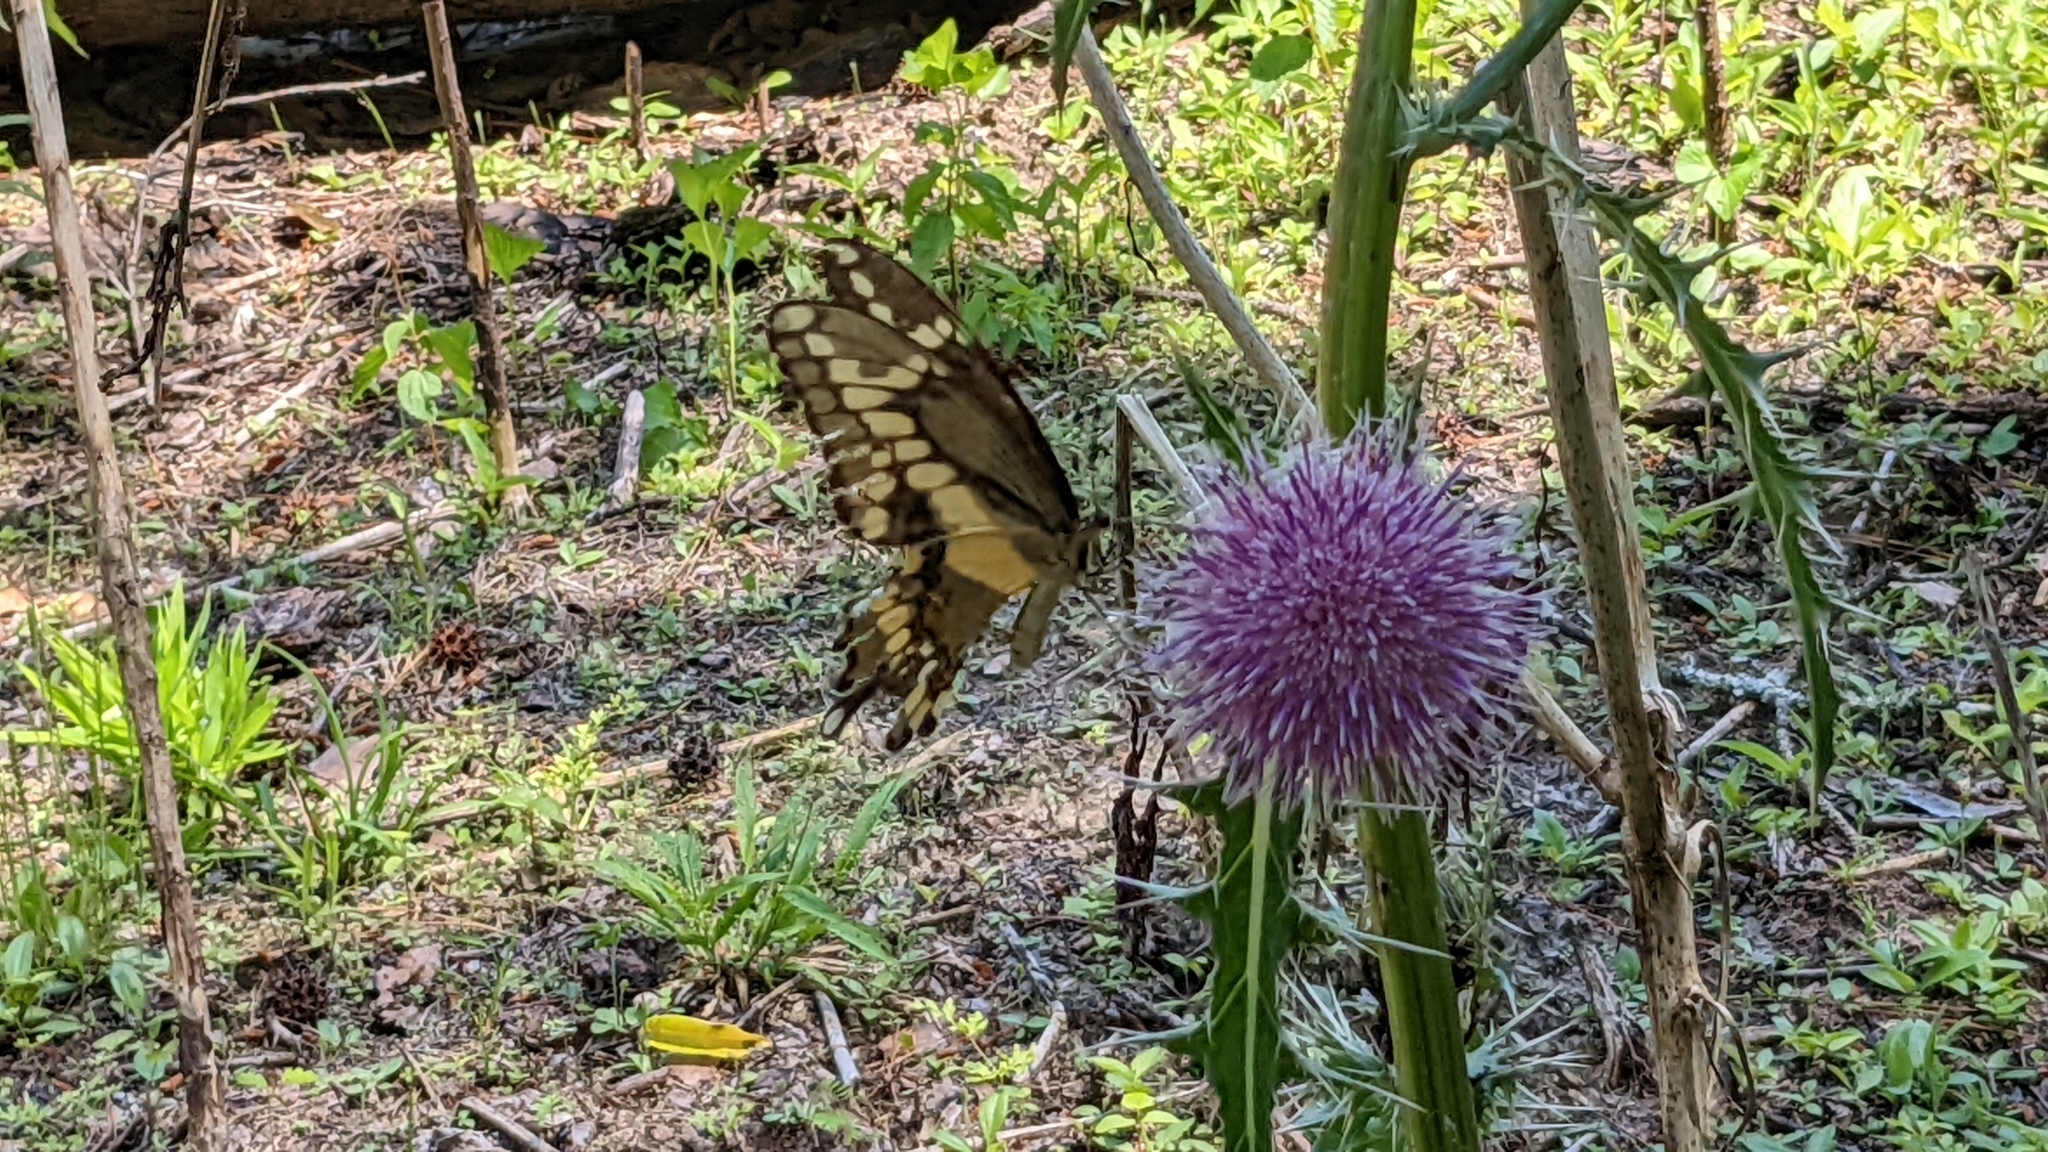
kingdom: Animalia
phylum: Arthropoda
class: Insecta
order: Lepidoptera
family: Papilionidae
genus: Papilio
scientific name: Papilio cresphontes
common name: Giant swallowtail
